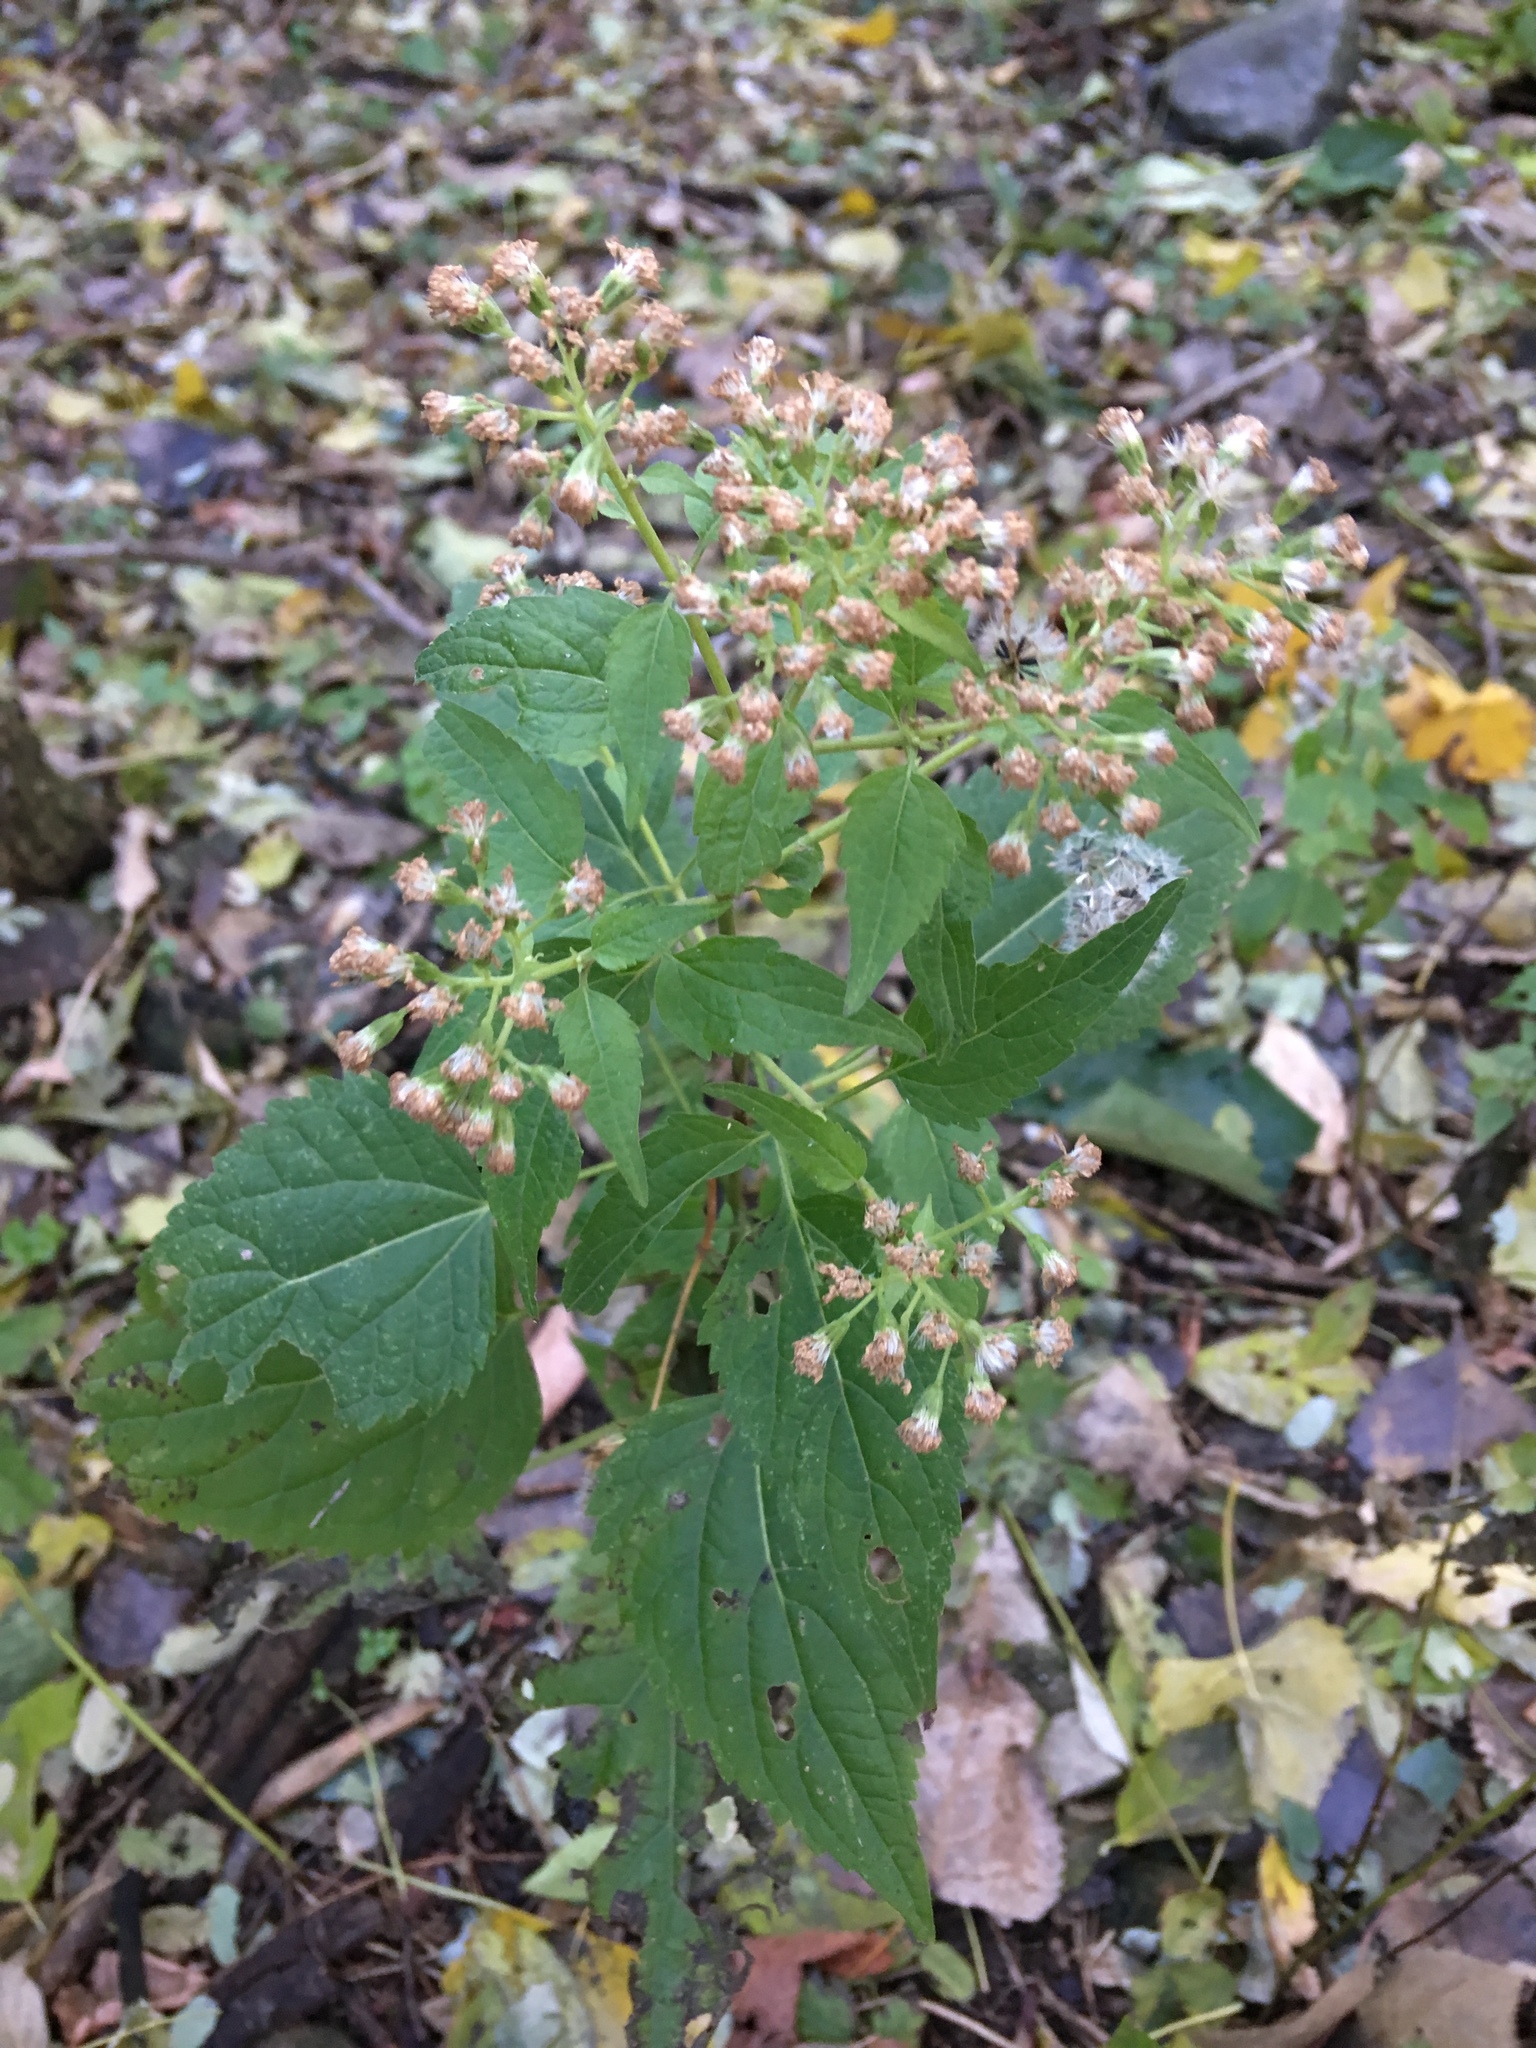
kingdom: Plantae
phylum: Tracheophyta
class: Magnoliopsida
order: Asterales
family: Asteraceae
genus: Ageratina
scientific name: Ageratina altissima
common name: White snakeroot
